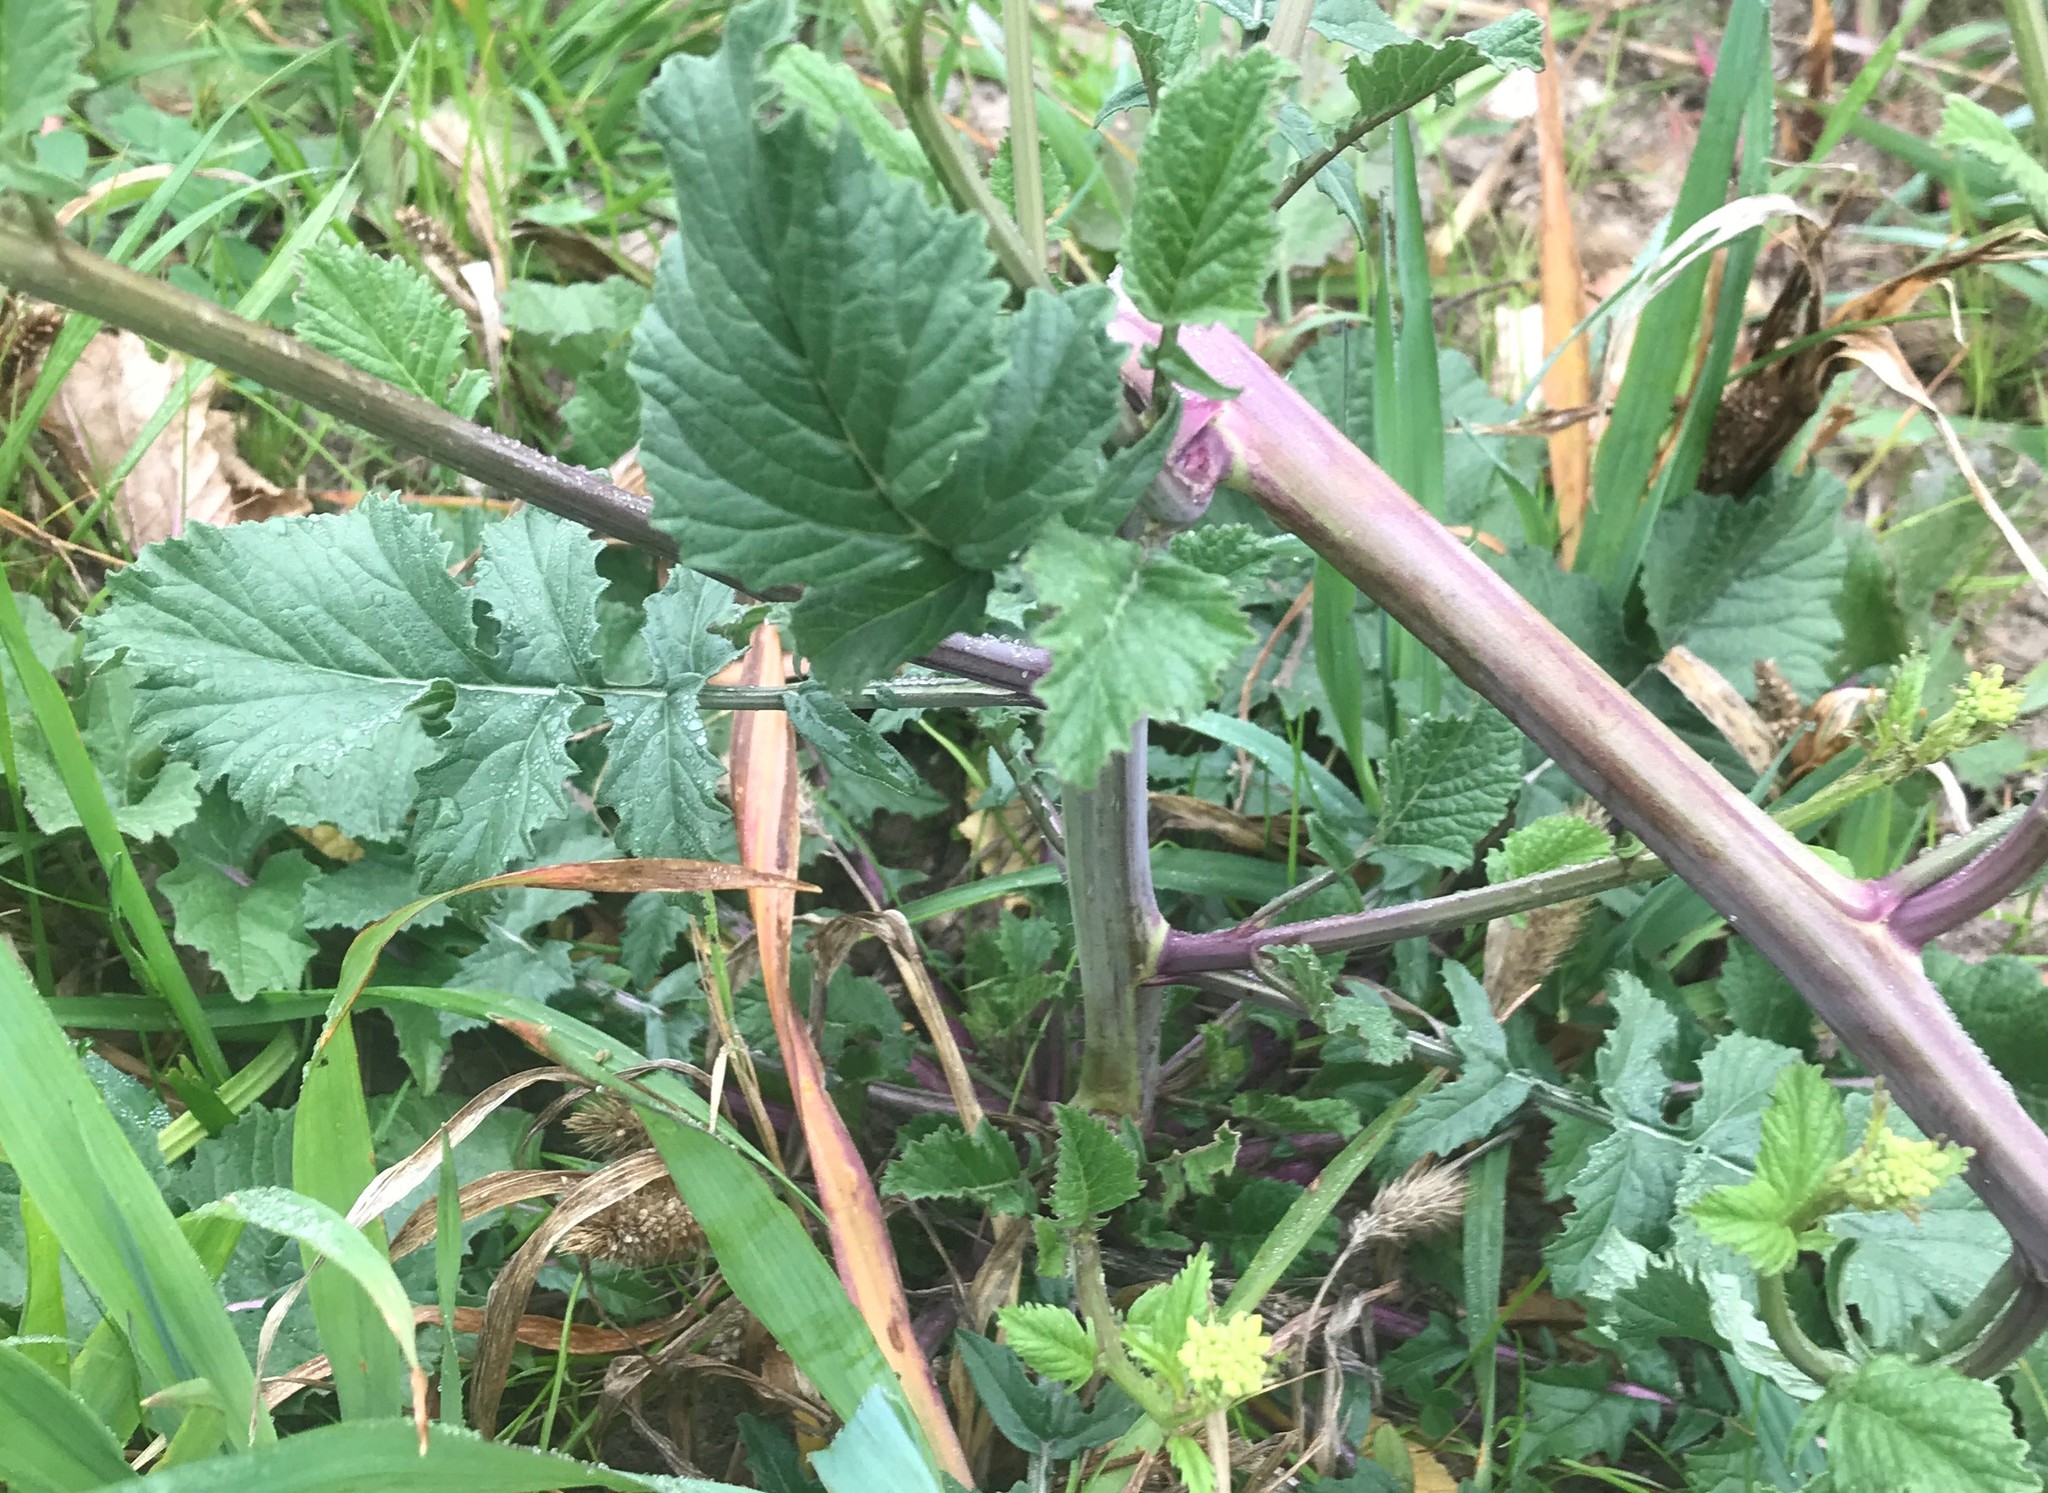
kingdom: Plantae
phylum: Tracheophyta
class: Magnoliopsida
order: Brassicales
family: Brassicaceae
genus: Rapistrum
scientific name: Rapistrum rugosum
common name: Annual bastardcabbage
